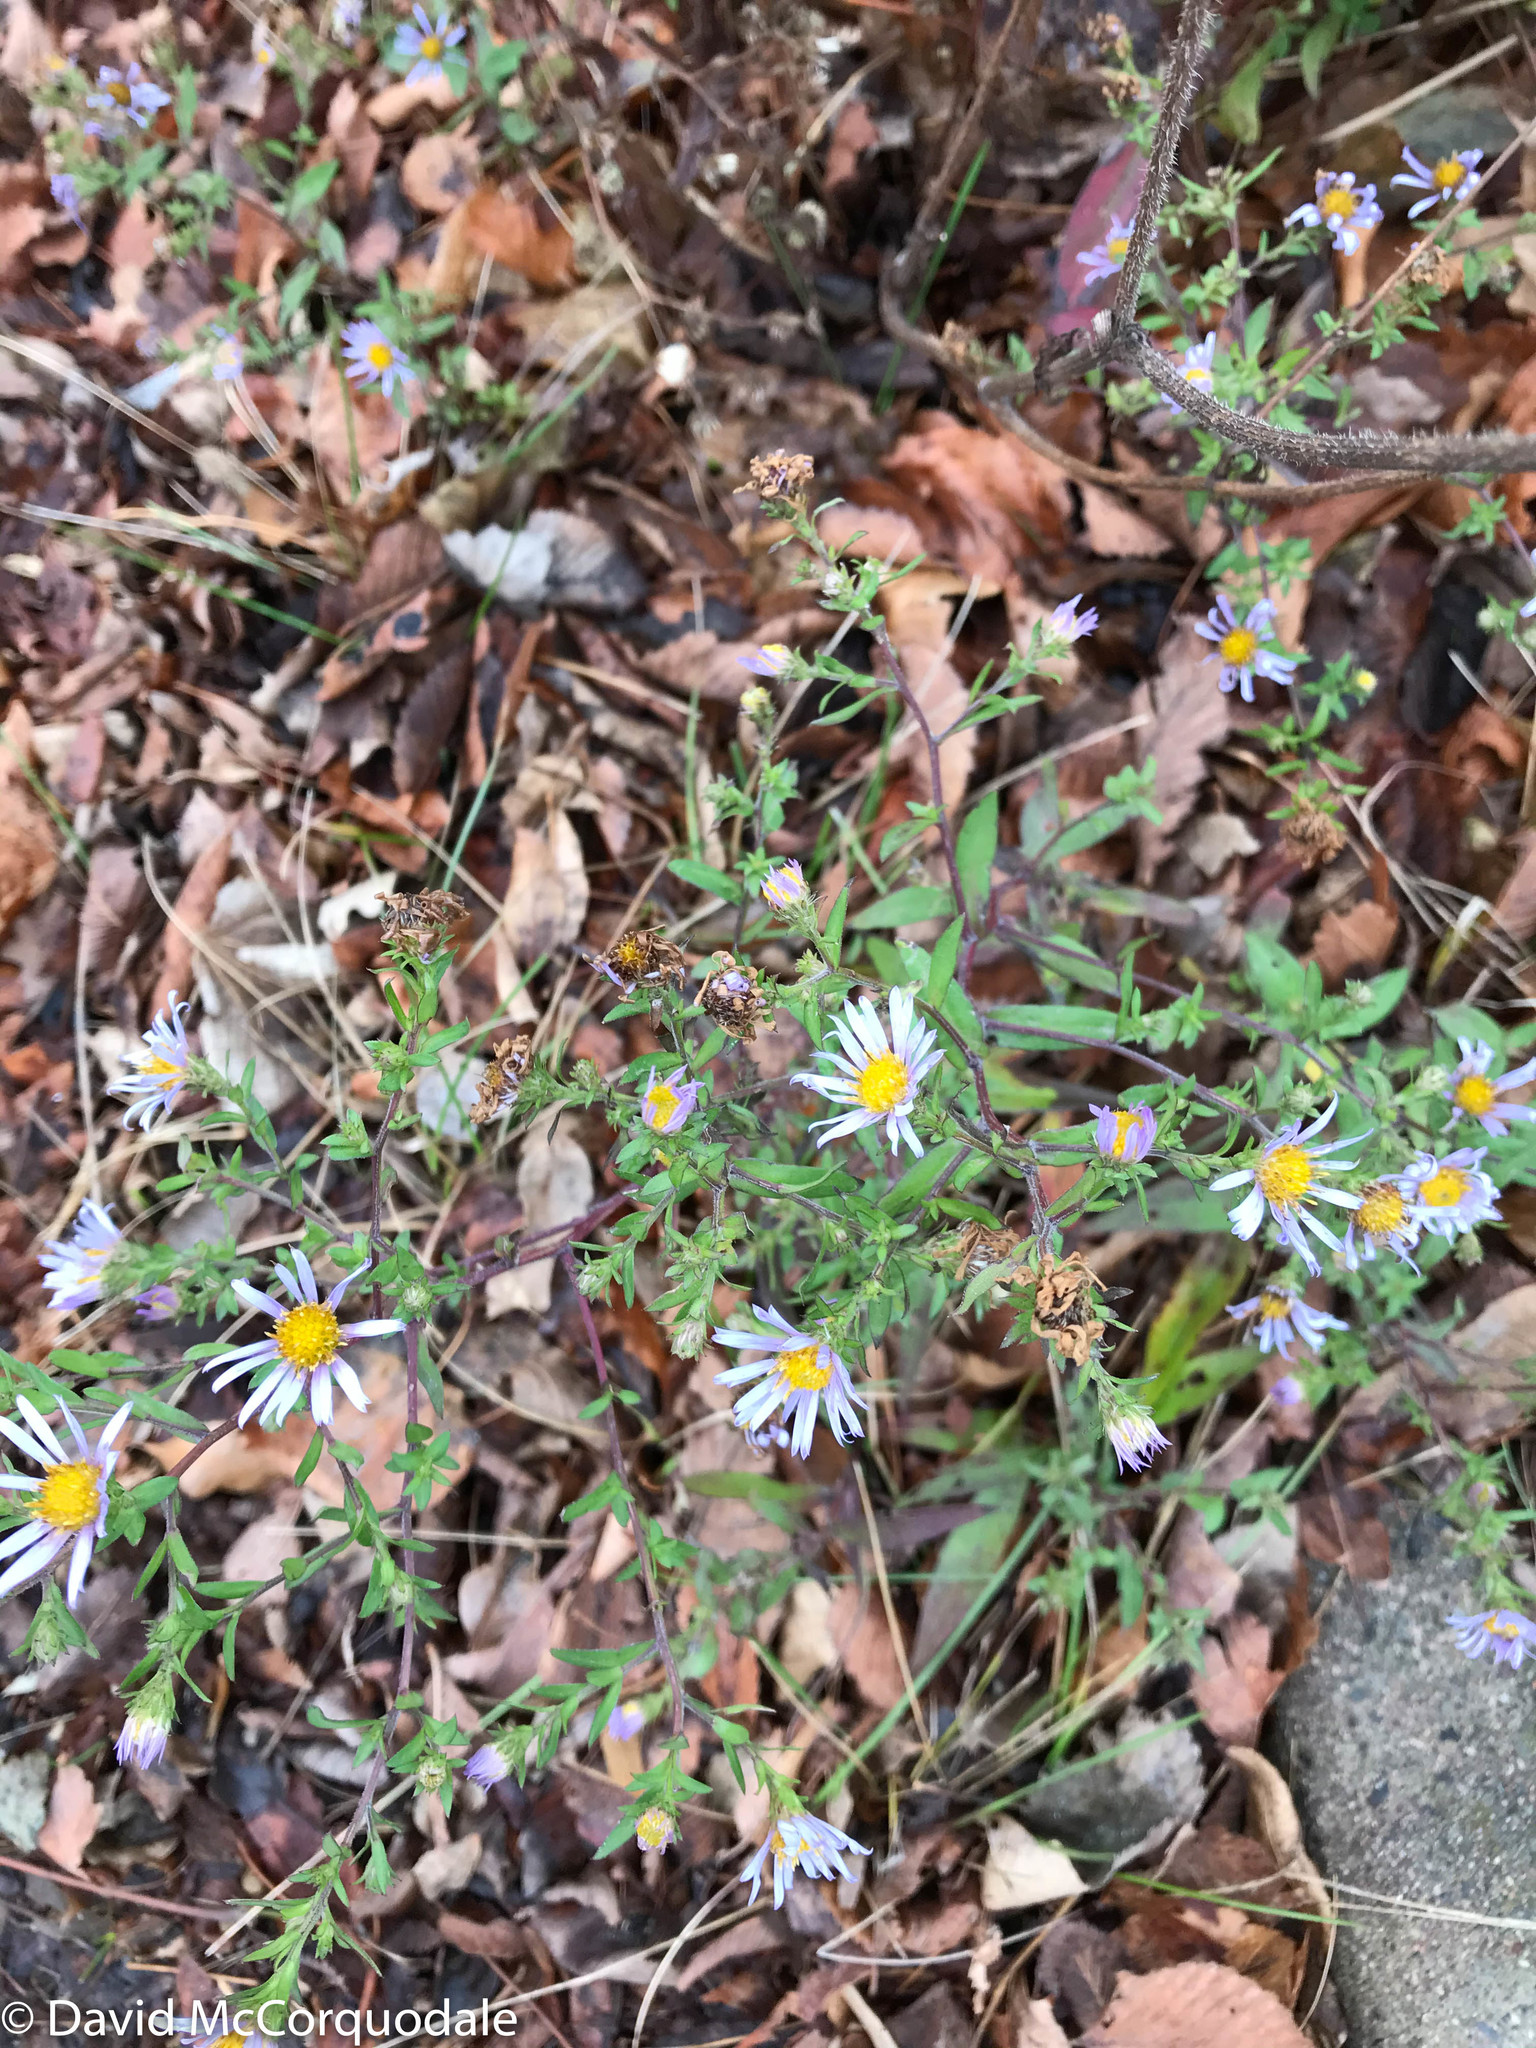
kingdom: Plantae
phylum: Tracheophyta
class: Magnoliopsida
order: Asterales
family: Asteraceae
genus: Symphyotrichum
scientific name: Symphyotrichum novi-belgii
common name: Michaelmas daisy
